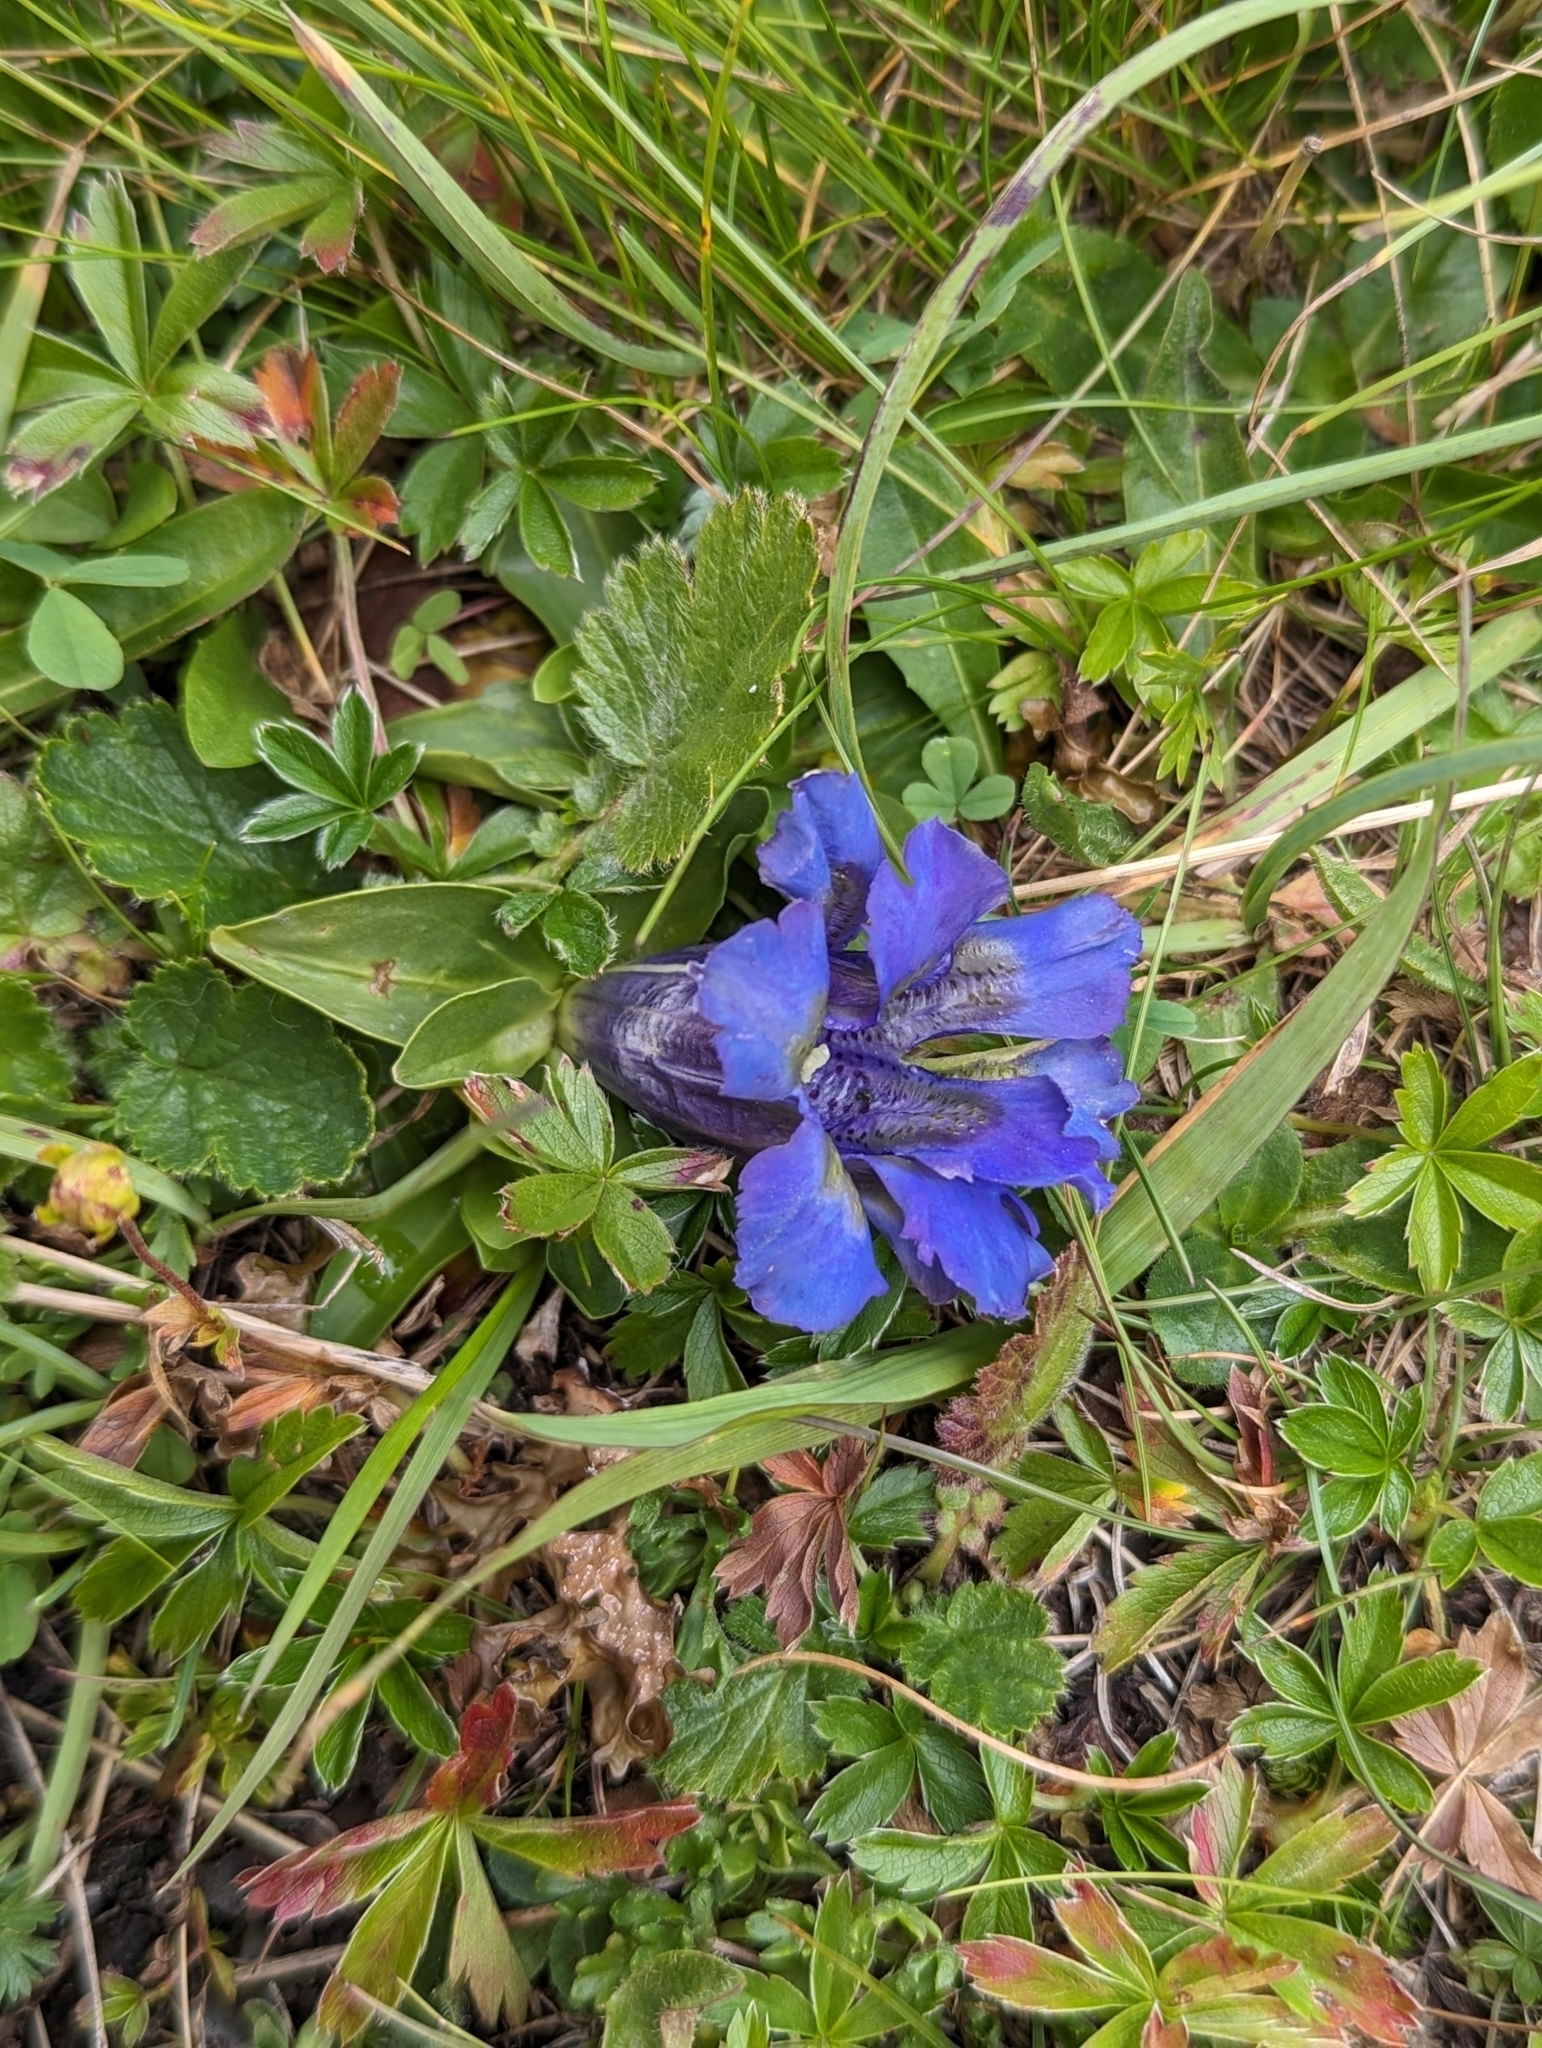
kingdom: Plantae
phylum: Tracheophyta
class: Magnoliopsida
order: Gentianales
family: Gentianaceae
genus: Gentiana
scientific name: Gentiana acaulis
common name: Trumpet gentian
